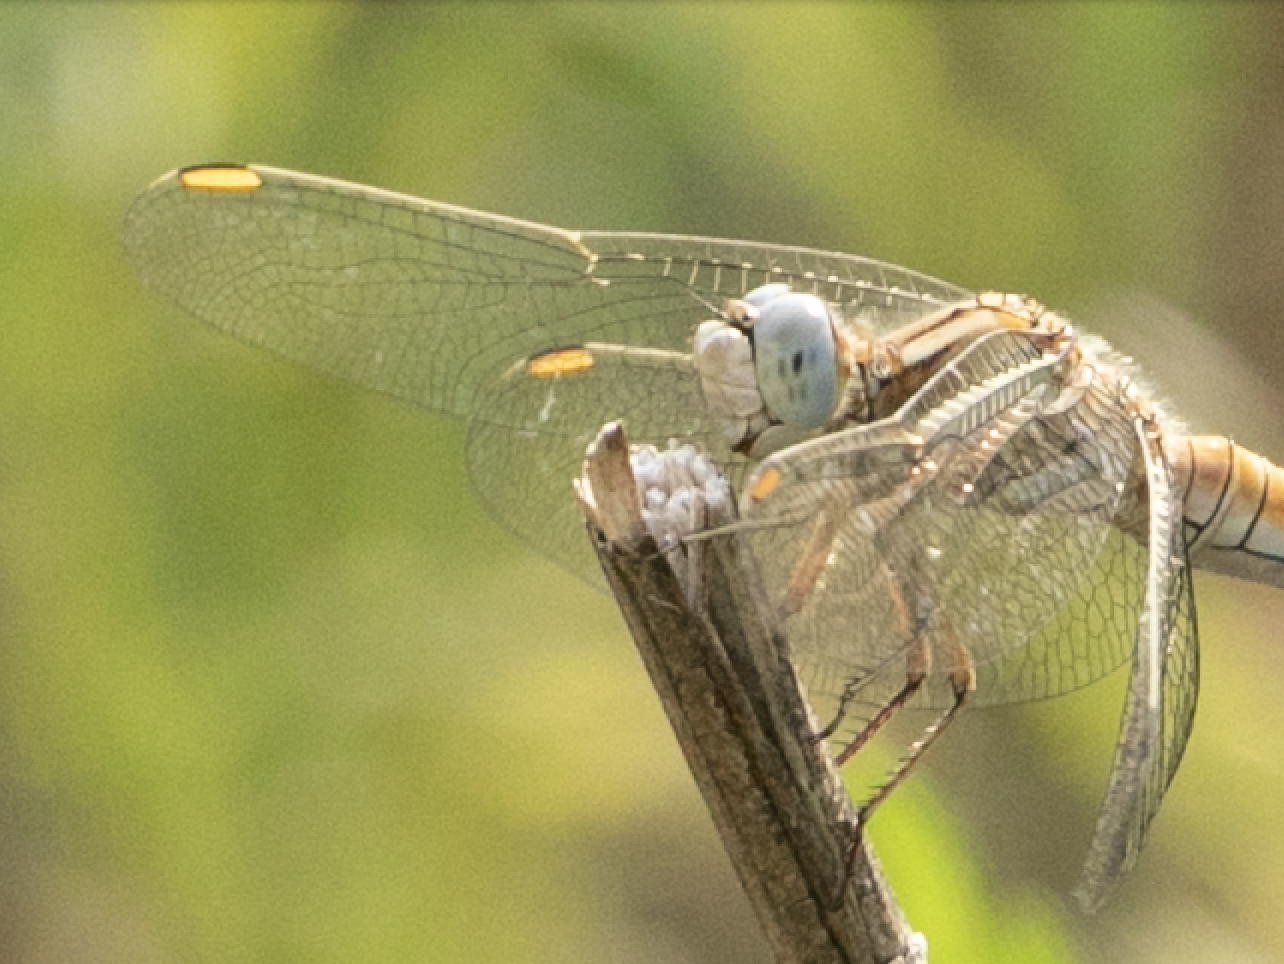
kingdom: Animalia
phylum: Arthropoda
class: Insecta
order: Odonata
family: Libellulidae
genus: Orthetrum
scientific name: Orthetrum brunneum
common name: Southern skimmer
